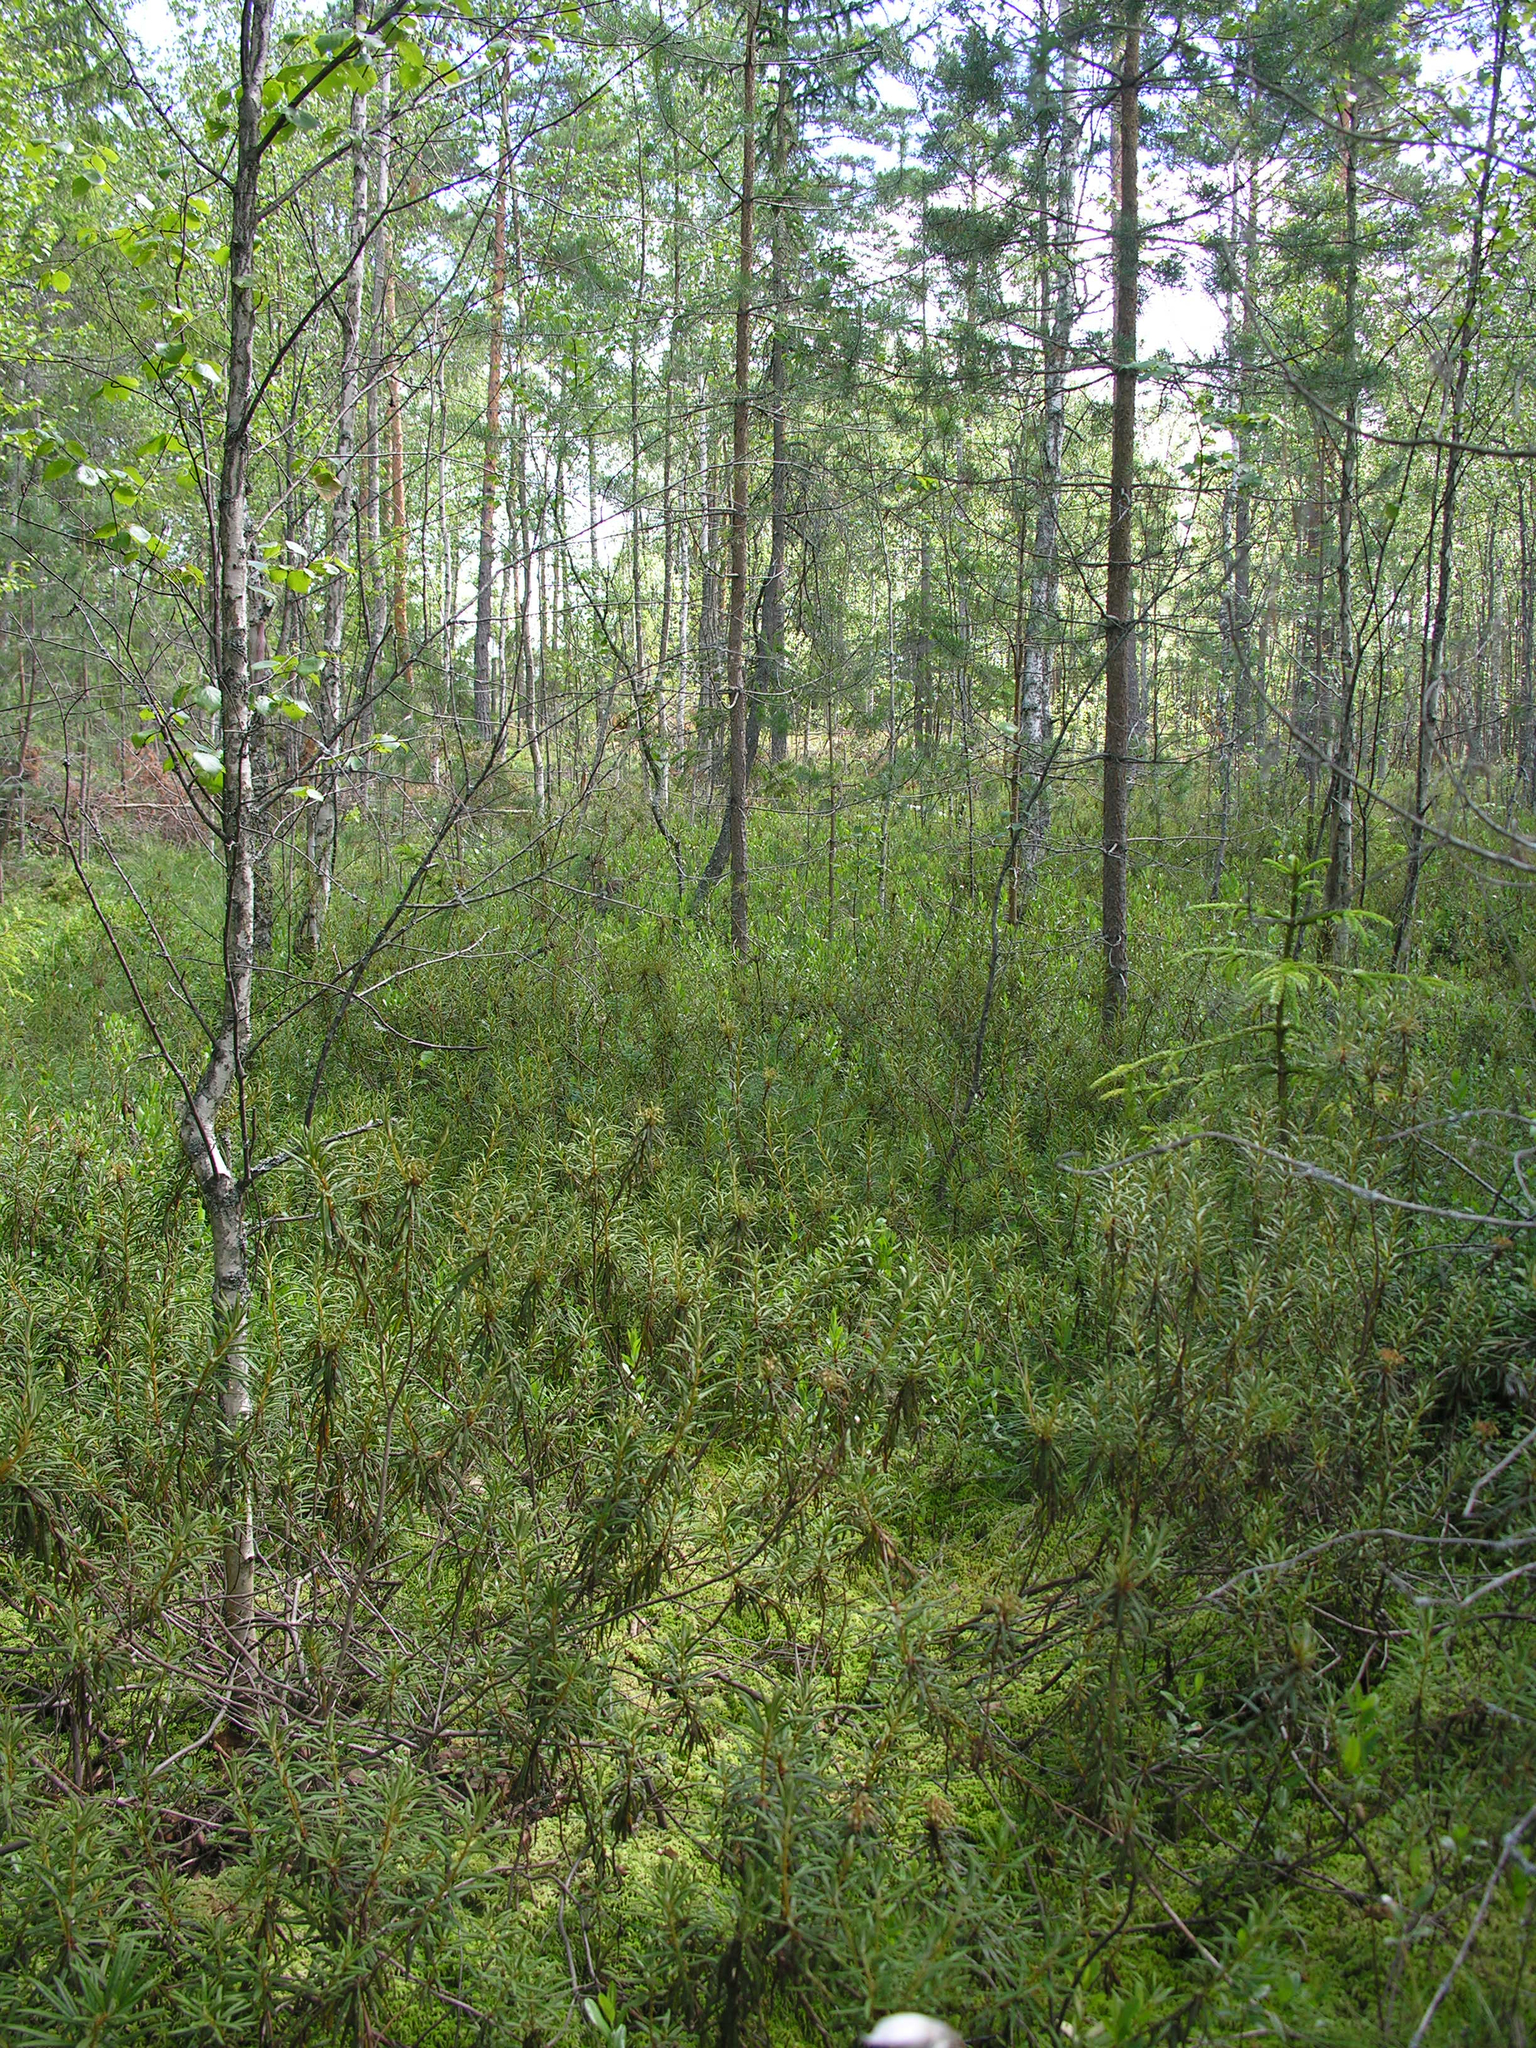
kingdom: Plantae
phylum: Tracheophyta
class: Magnoliopsida
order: Ericales
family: Ericaceae
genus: Rhododendron
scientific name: Rhododendron tomentosum
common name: Marsh labrador tea
